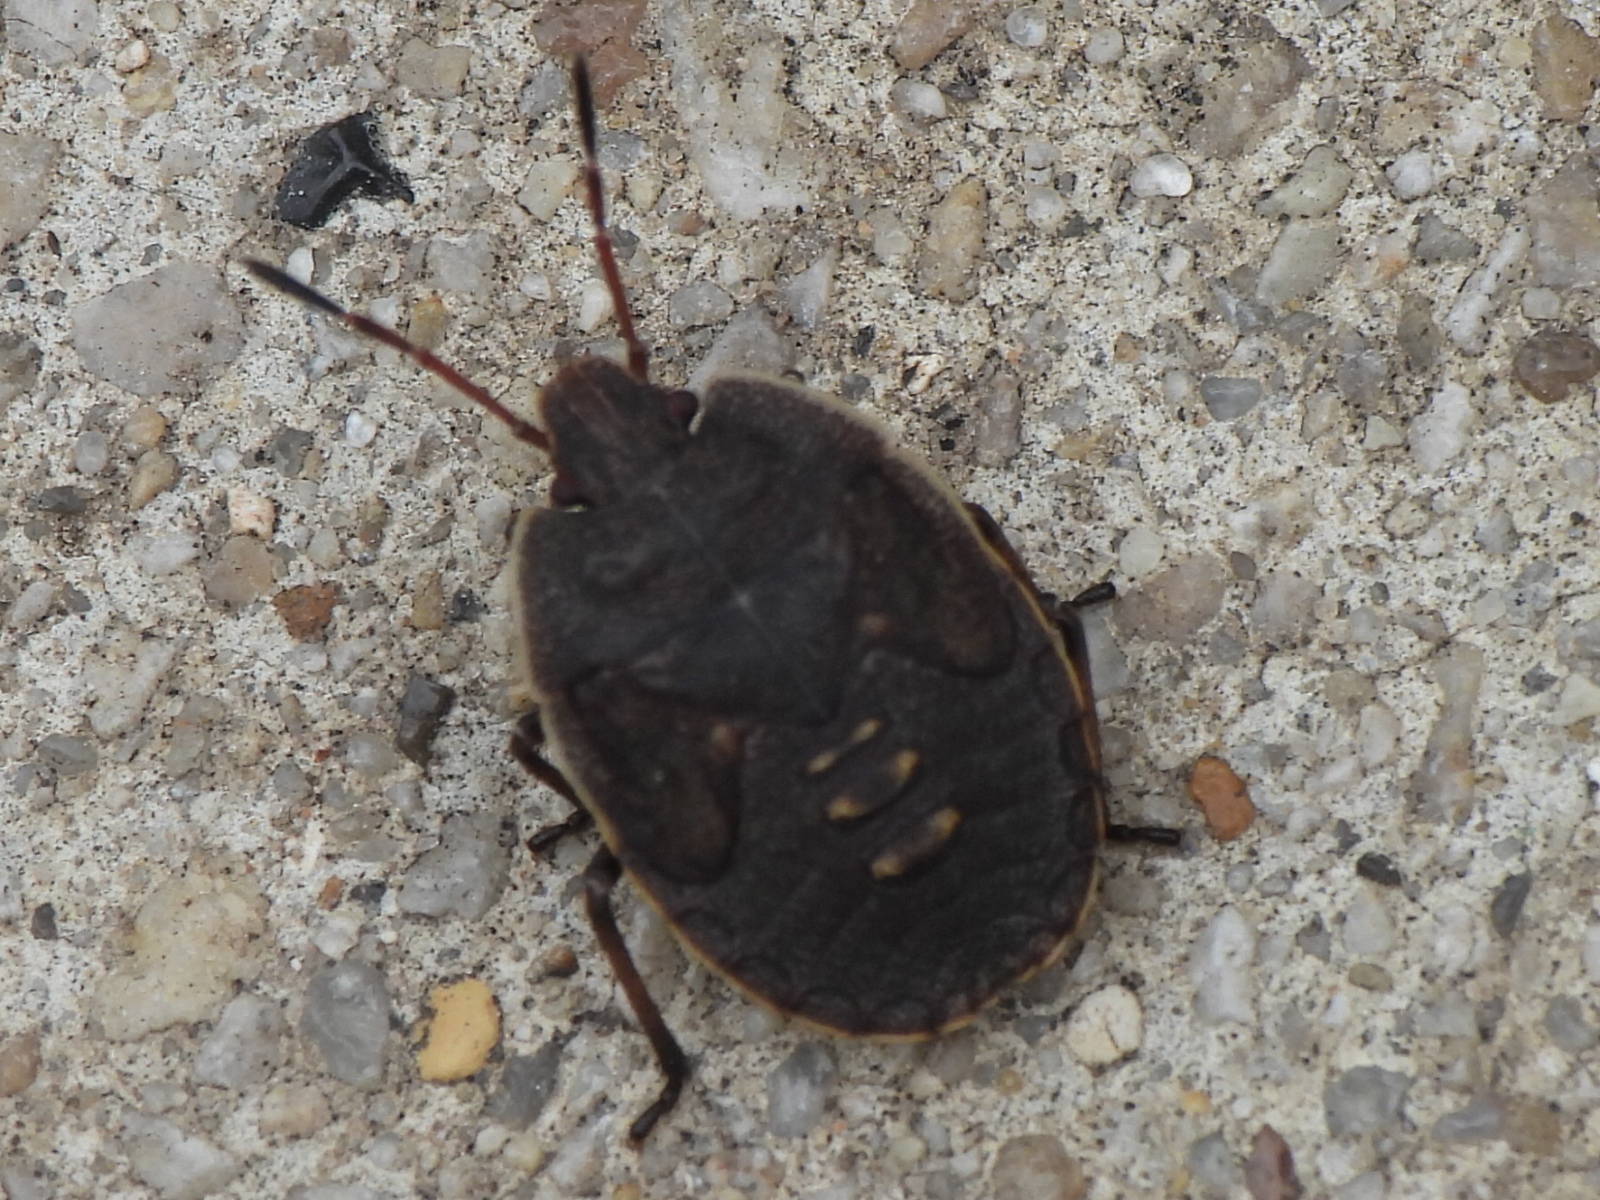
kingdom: Animalia
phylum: Arthropoda
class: Insecta
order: Hemiptera
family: Pentatomidae
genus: Menecles
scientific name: Menecles insertus
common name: Elf shoe stink bug
